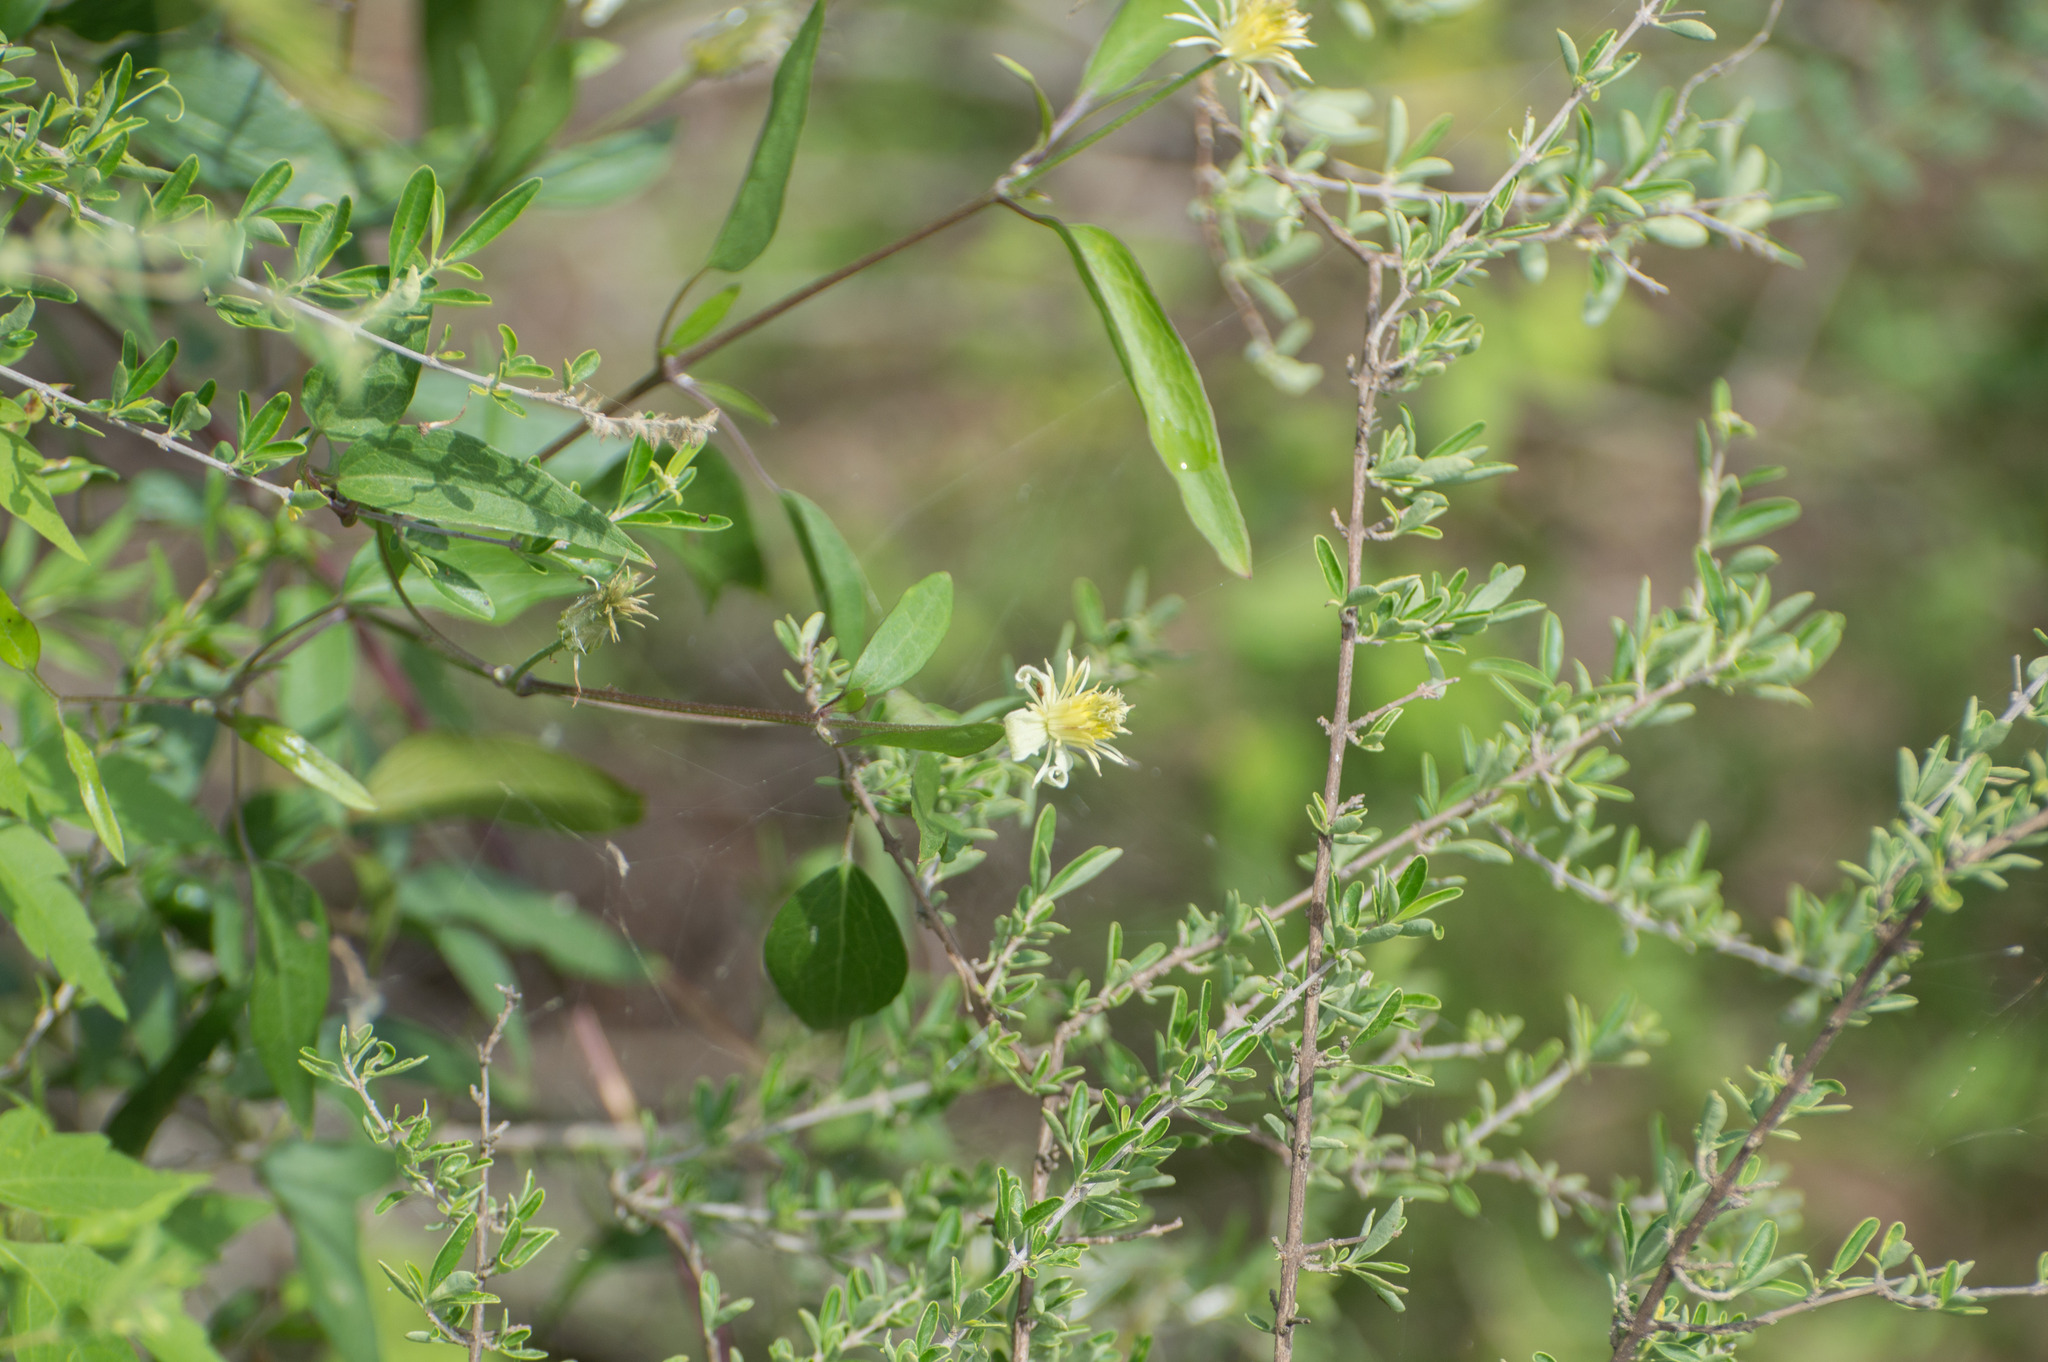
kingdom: Plantae
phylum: Tracheophyta
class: Magnoliopsida
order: Ranunculales
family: Ranunculaceae
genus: Clematis
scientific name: Clematis montevidensis
